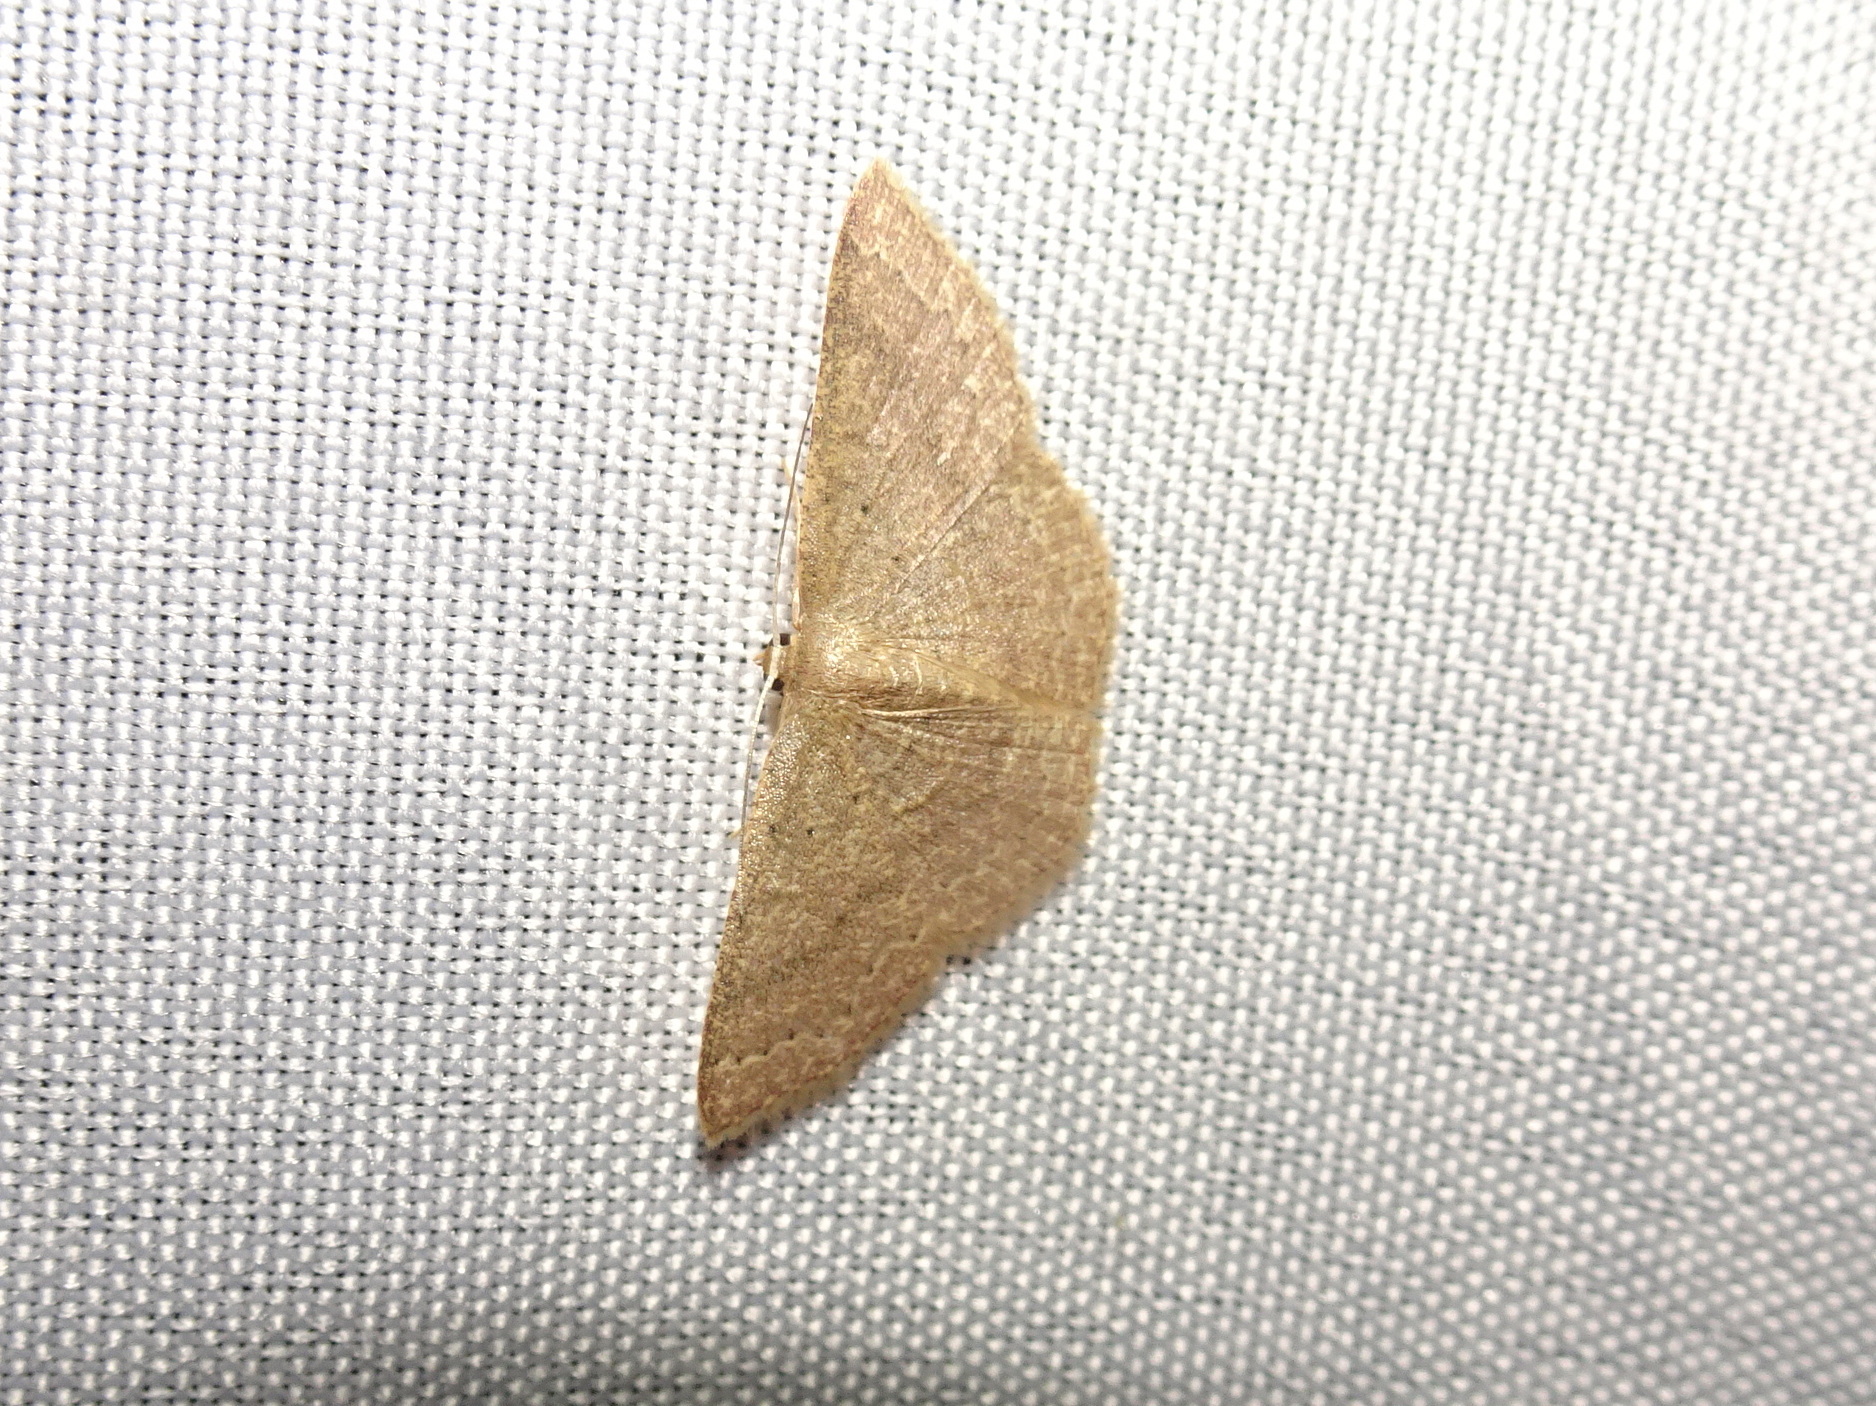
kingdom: Animalia
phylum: Arthropoda
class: Insecta
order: Lepidoptera
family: Geometridae
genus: Pleuroprucha
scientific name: Pleuroprucha insulsaria
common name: Common tan wave
